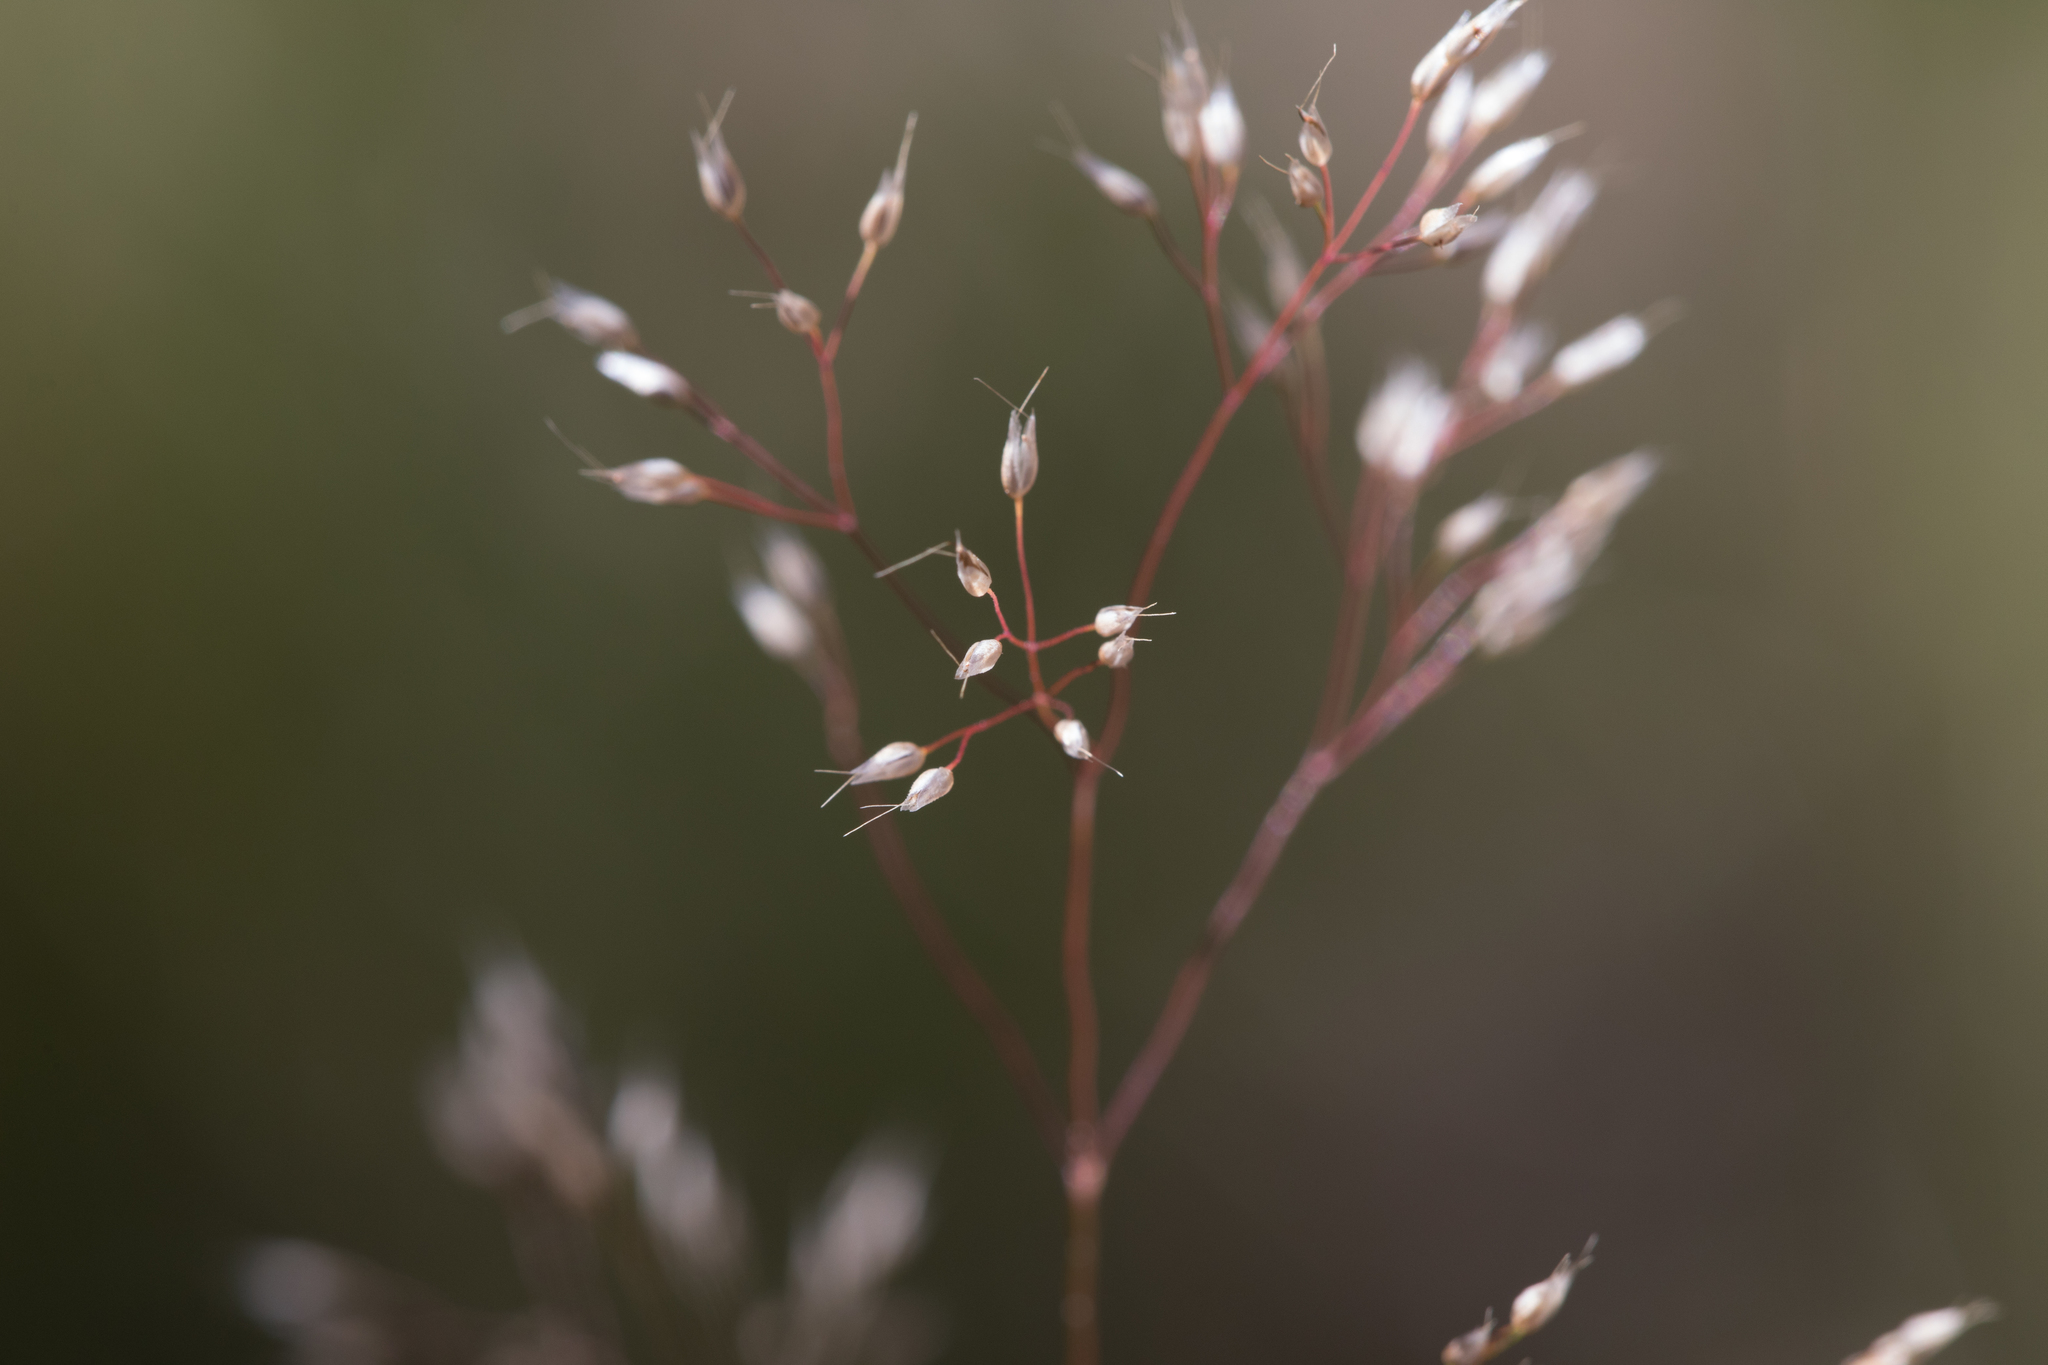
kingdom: Plantae
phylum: Tracheophyta
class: Liliopsida
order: Poales
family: Poaceae
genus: Aira
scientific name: Aira caryophyllea
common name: Silver hairgrass
